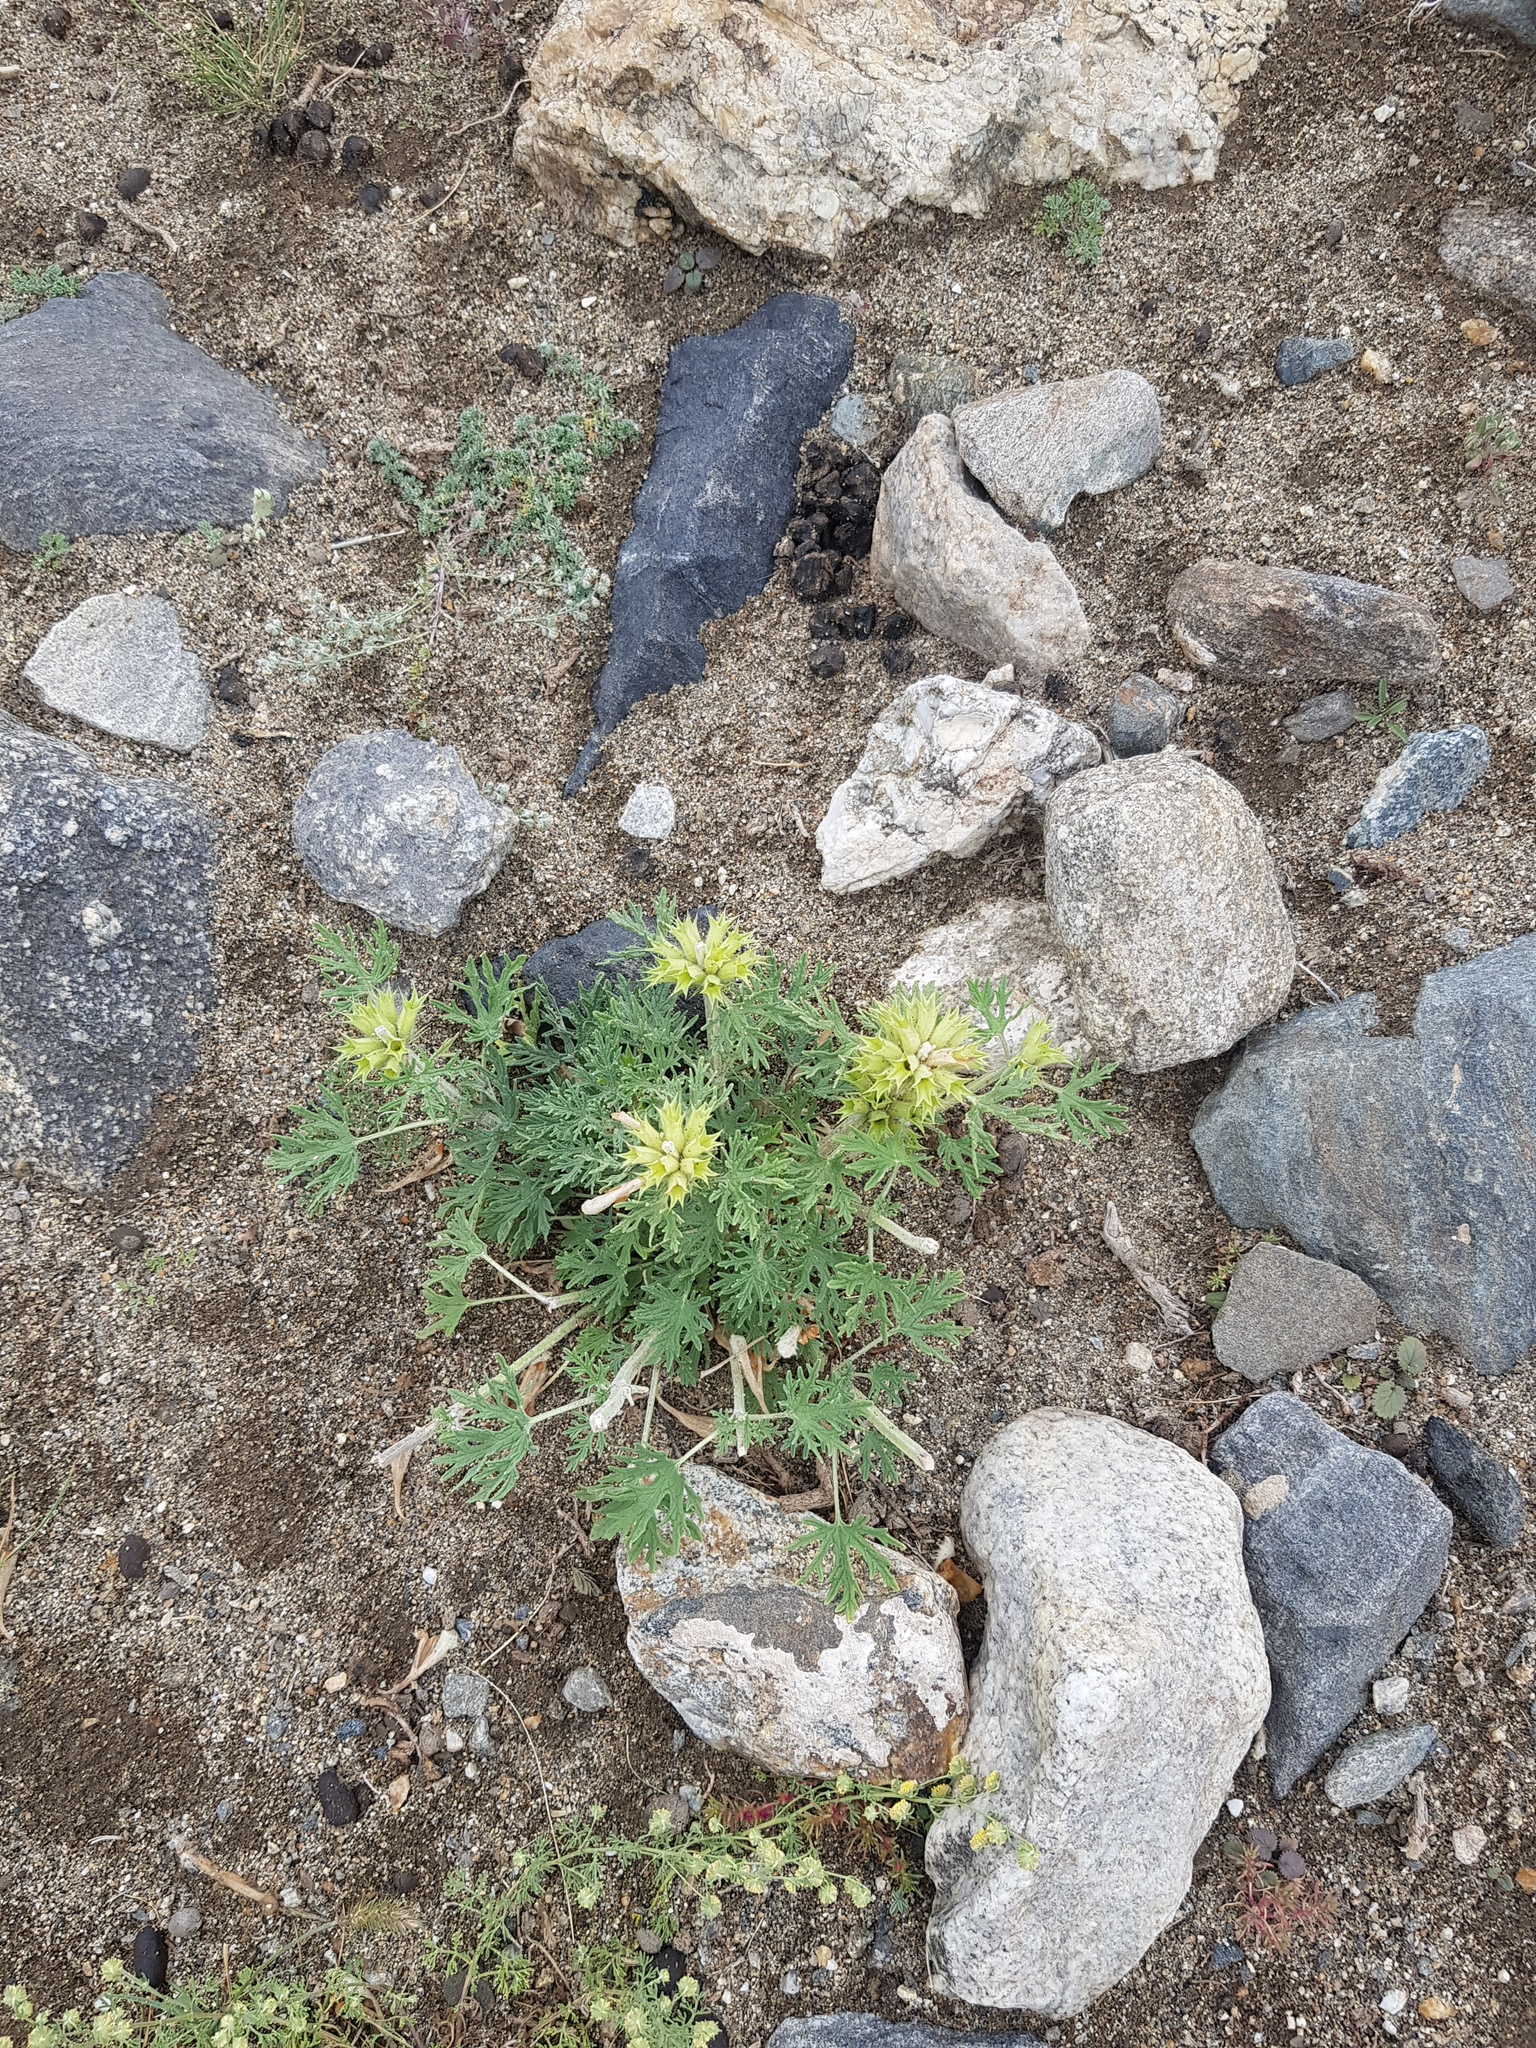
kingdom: Plantae
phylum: Tracheophyta
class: Magnoliopsida
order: Lamiales
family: Lamiaceae
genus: Panzerina
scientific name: Panzerina lanata
